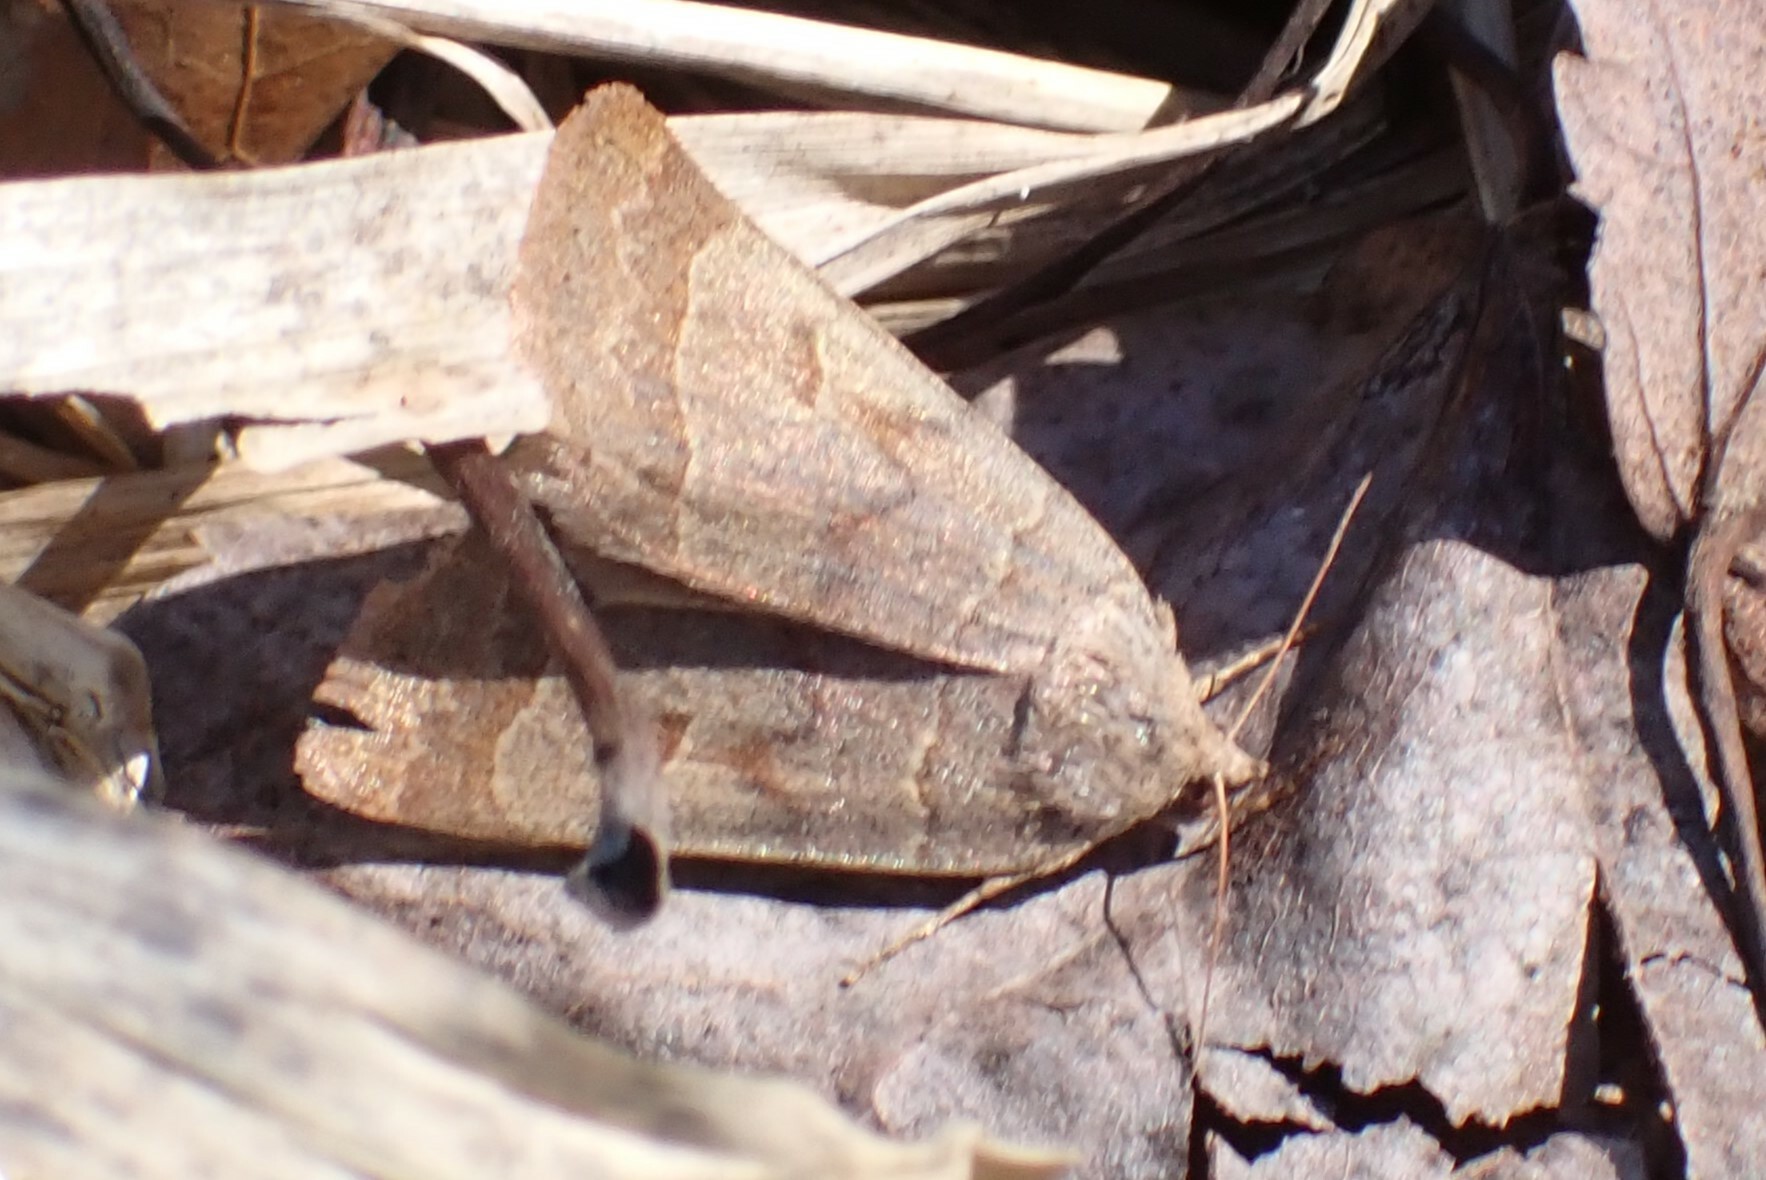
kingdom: Animalia
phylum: Arthropoda
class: Insecta
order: Lepidoptera
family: Erebidae
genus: Phoberia
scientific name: Phoberia atomaris
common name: Common oak moth
